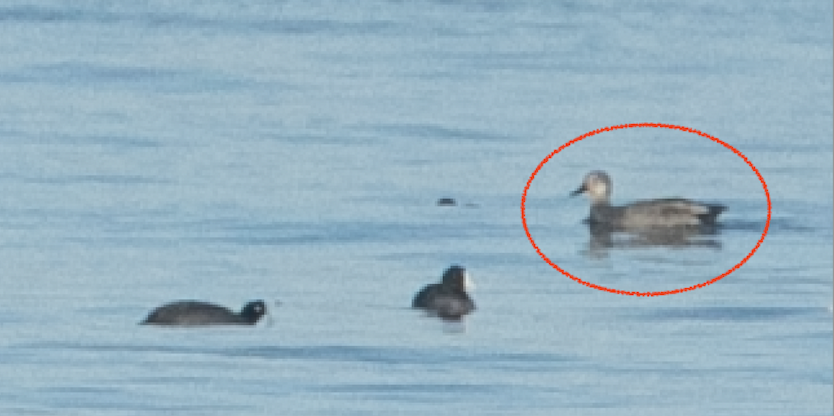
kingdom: Animalia
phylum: Chordata
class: Aves
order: Anseriformes
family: Anatidae
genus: Mareca
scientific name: Mareca strepera
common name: Gadwall
